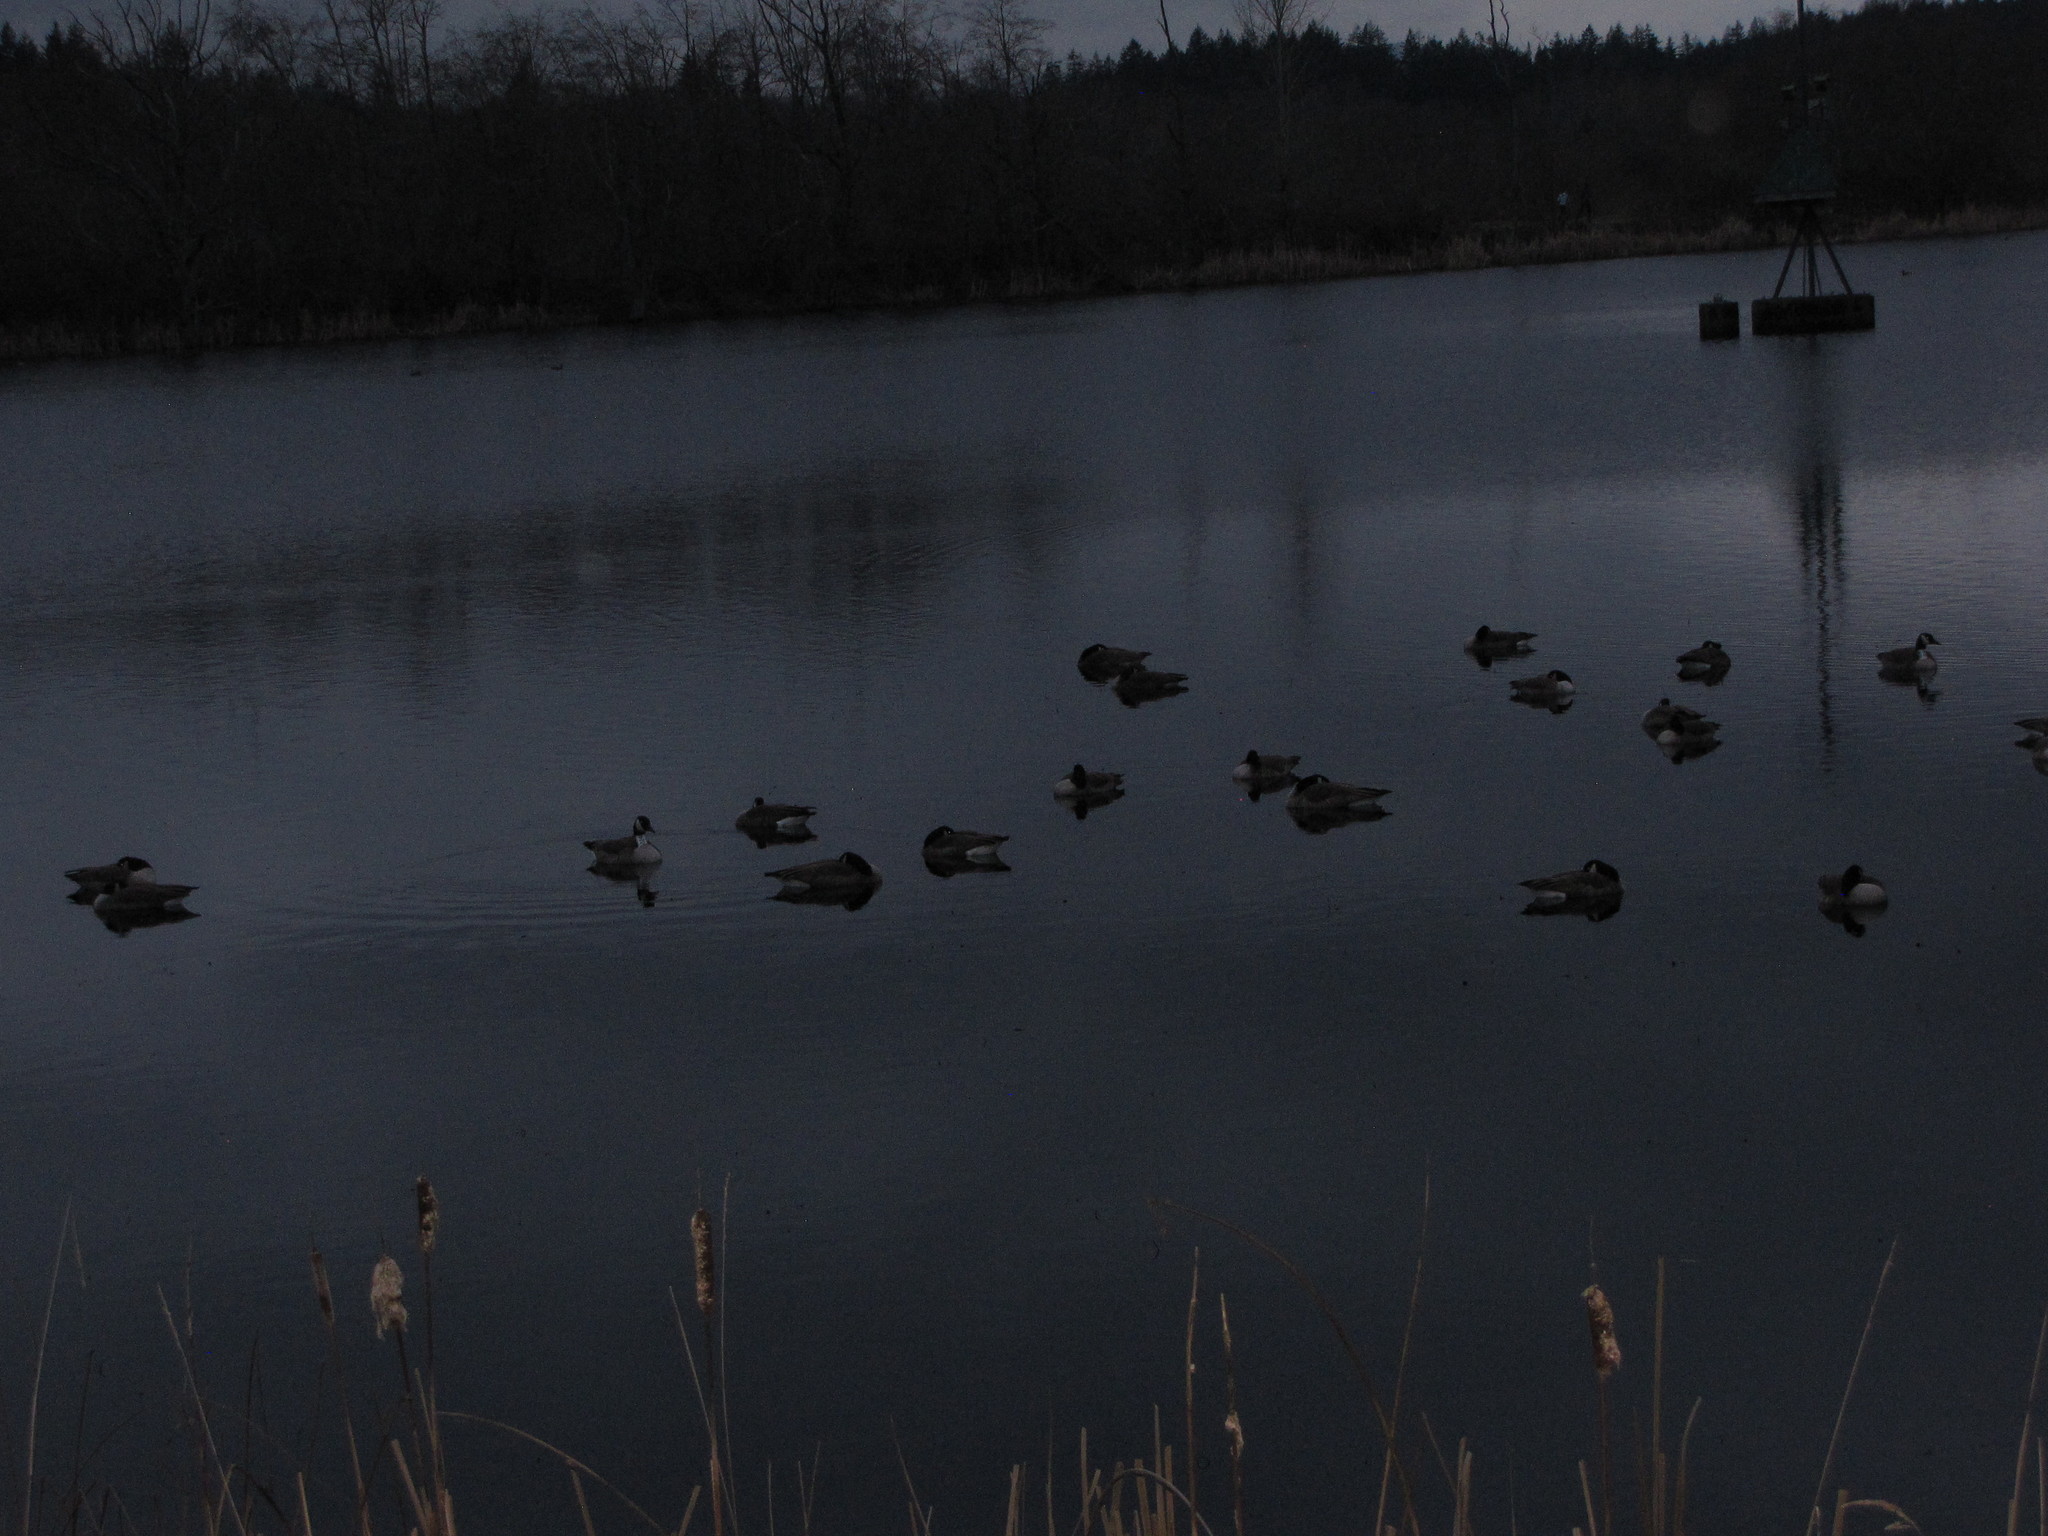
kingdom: Animalia
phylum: Chordata
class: Aves
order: Anseriformes
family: Anatidae
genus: Branta
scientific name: Branta canadensis
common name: Canada goose
